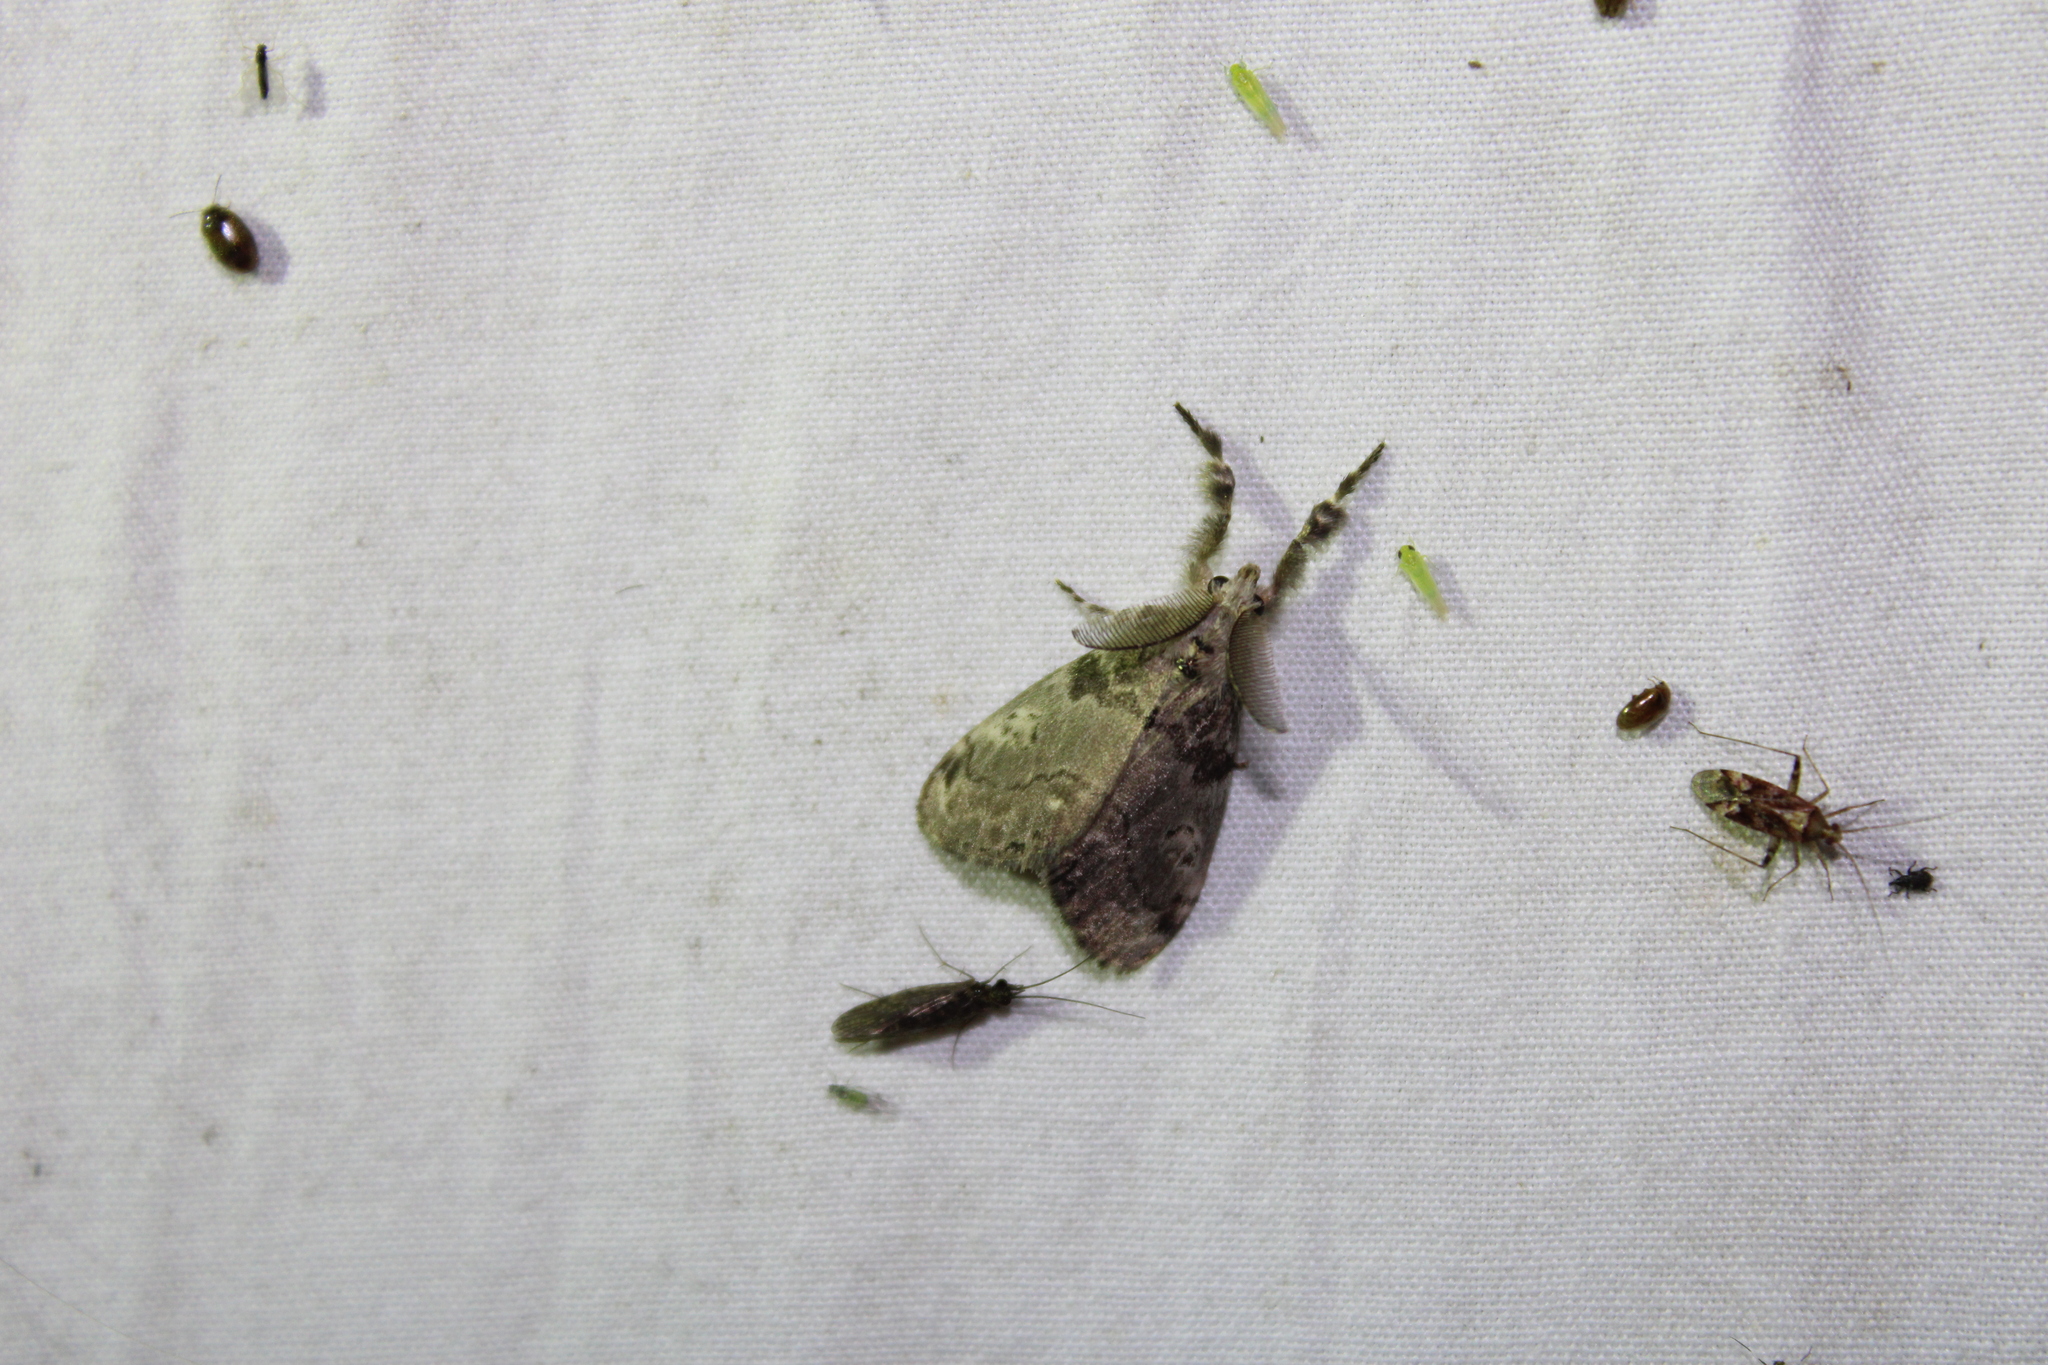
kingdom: Animalia
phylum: Arthropoda
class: Insecta
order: Lepidoptera
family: Erebidae
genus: Orgyia
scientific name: Orgyia leucostigma
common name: White-marked tussock moth
